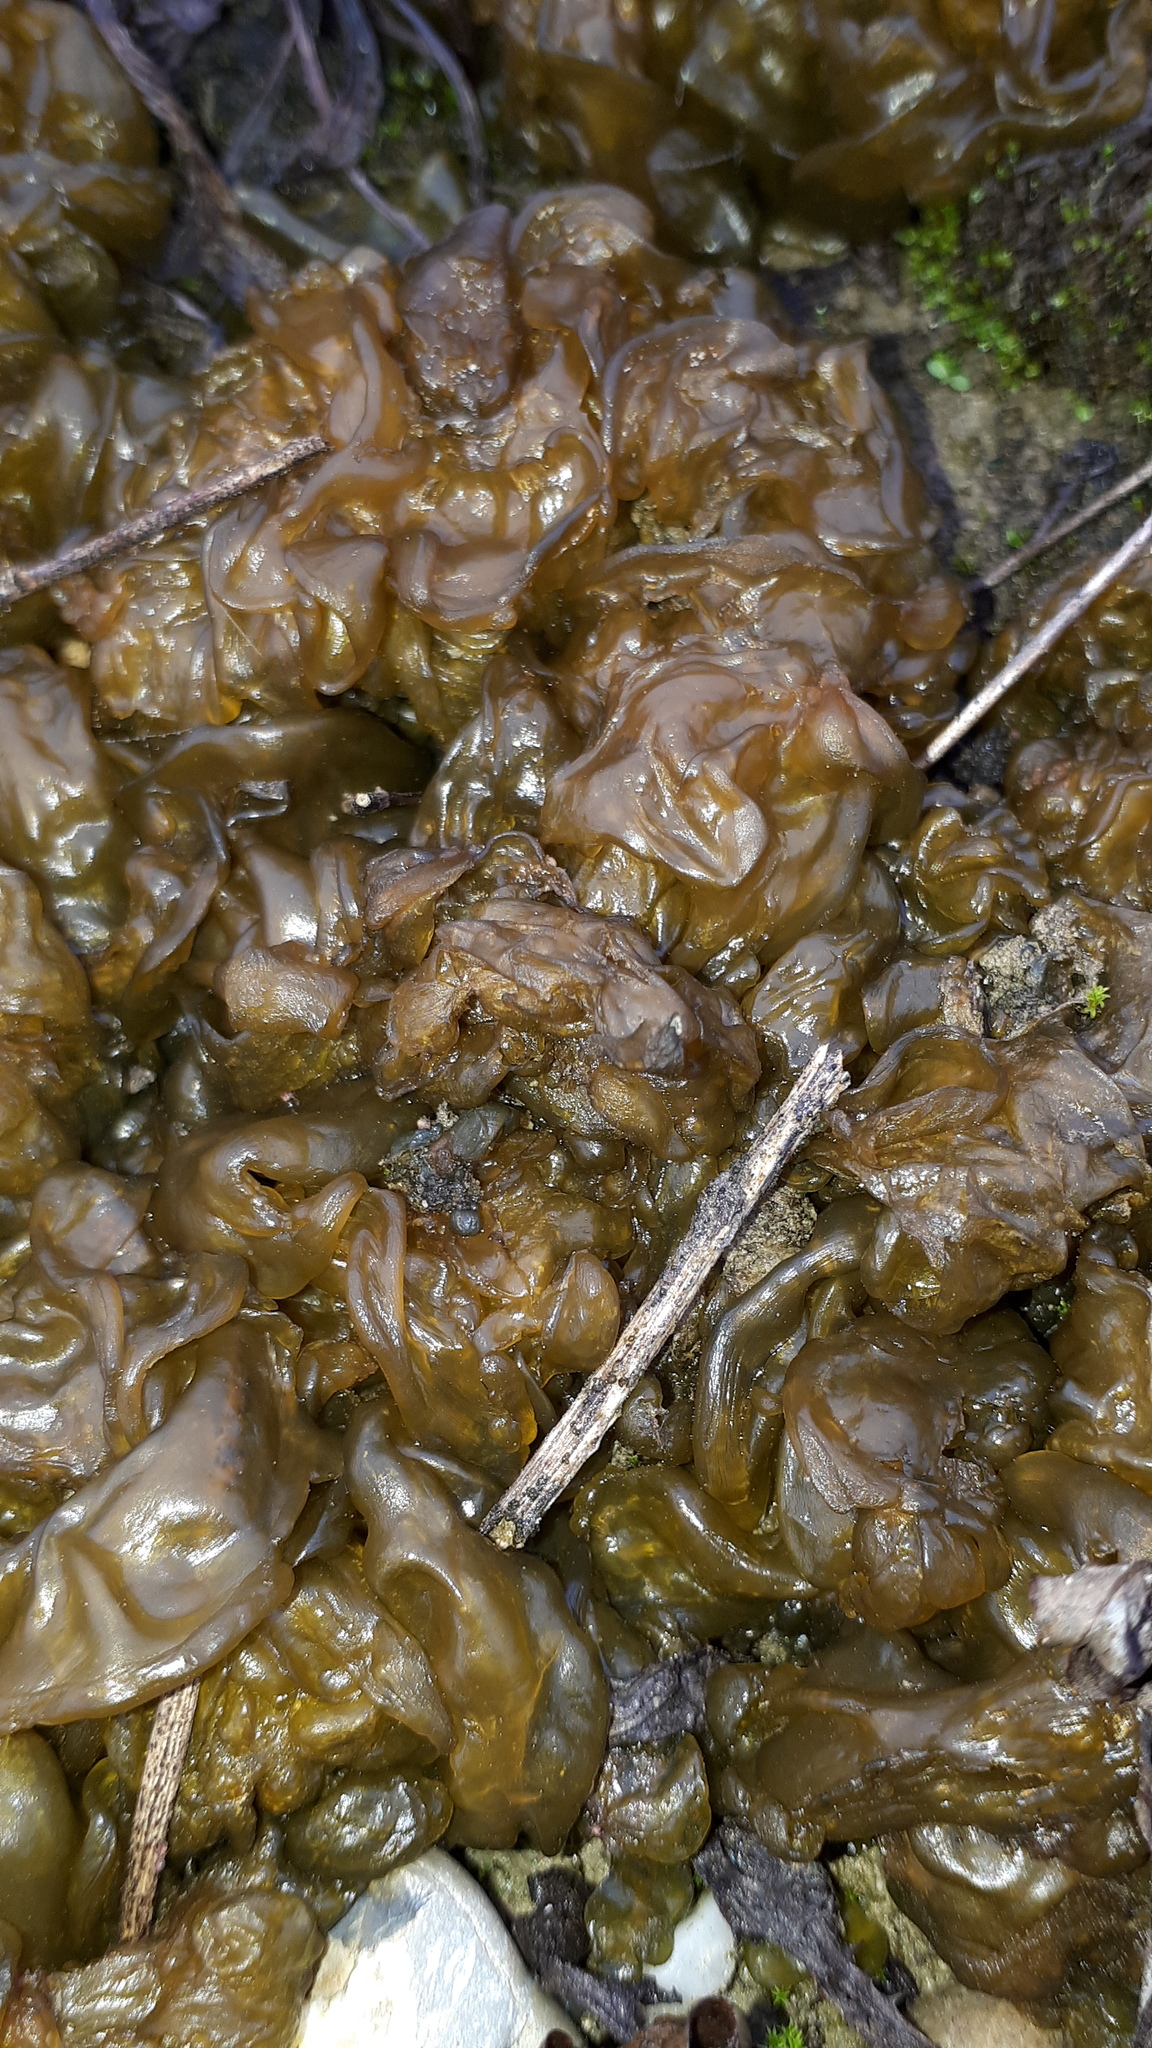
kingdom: Bacteria
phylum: Cyanobacteria
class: Cyanobacteriia
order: Cyanobacteriales
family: Nostocaceae
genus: Nostoc
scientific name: Nostoc commune
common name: Star jelly
